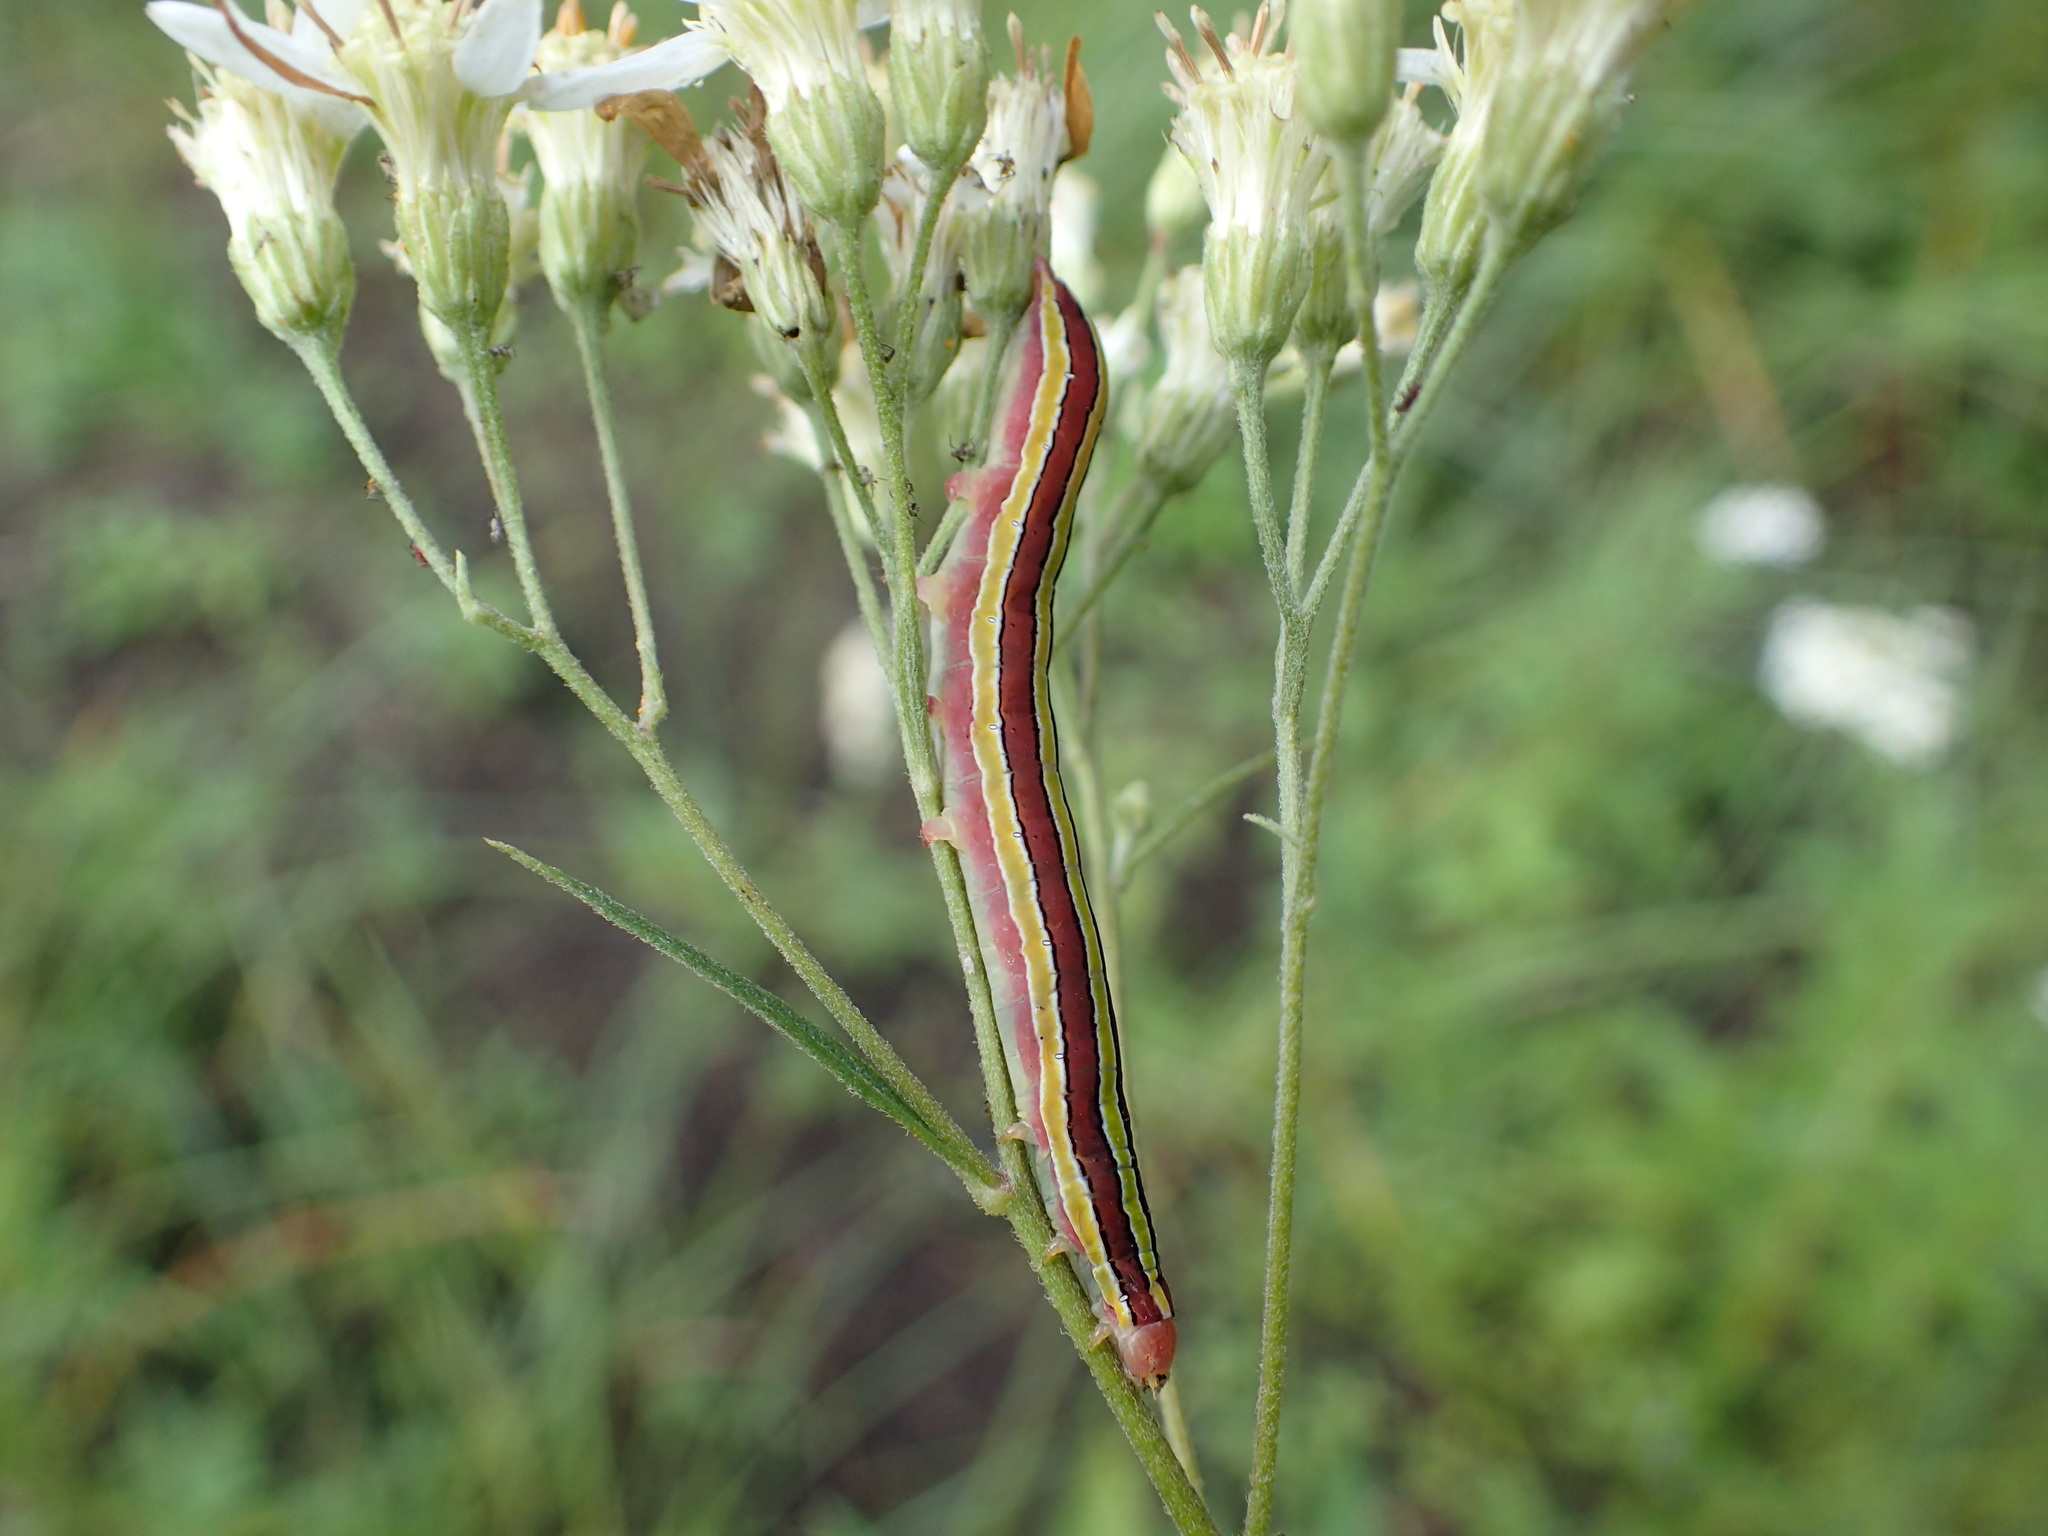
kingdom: Animalia
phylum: Arthropoda
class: Insecta
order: Lepidoptera
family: Noctuidae
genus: Melanchra
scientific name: Melanchra assimilis
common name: Black arches
